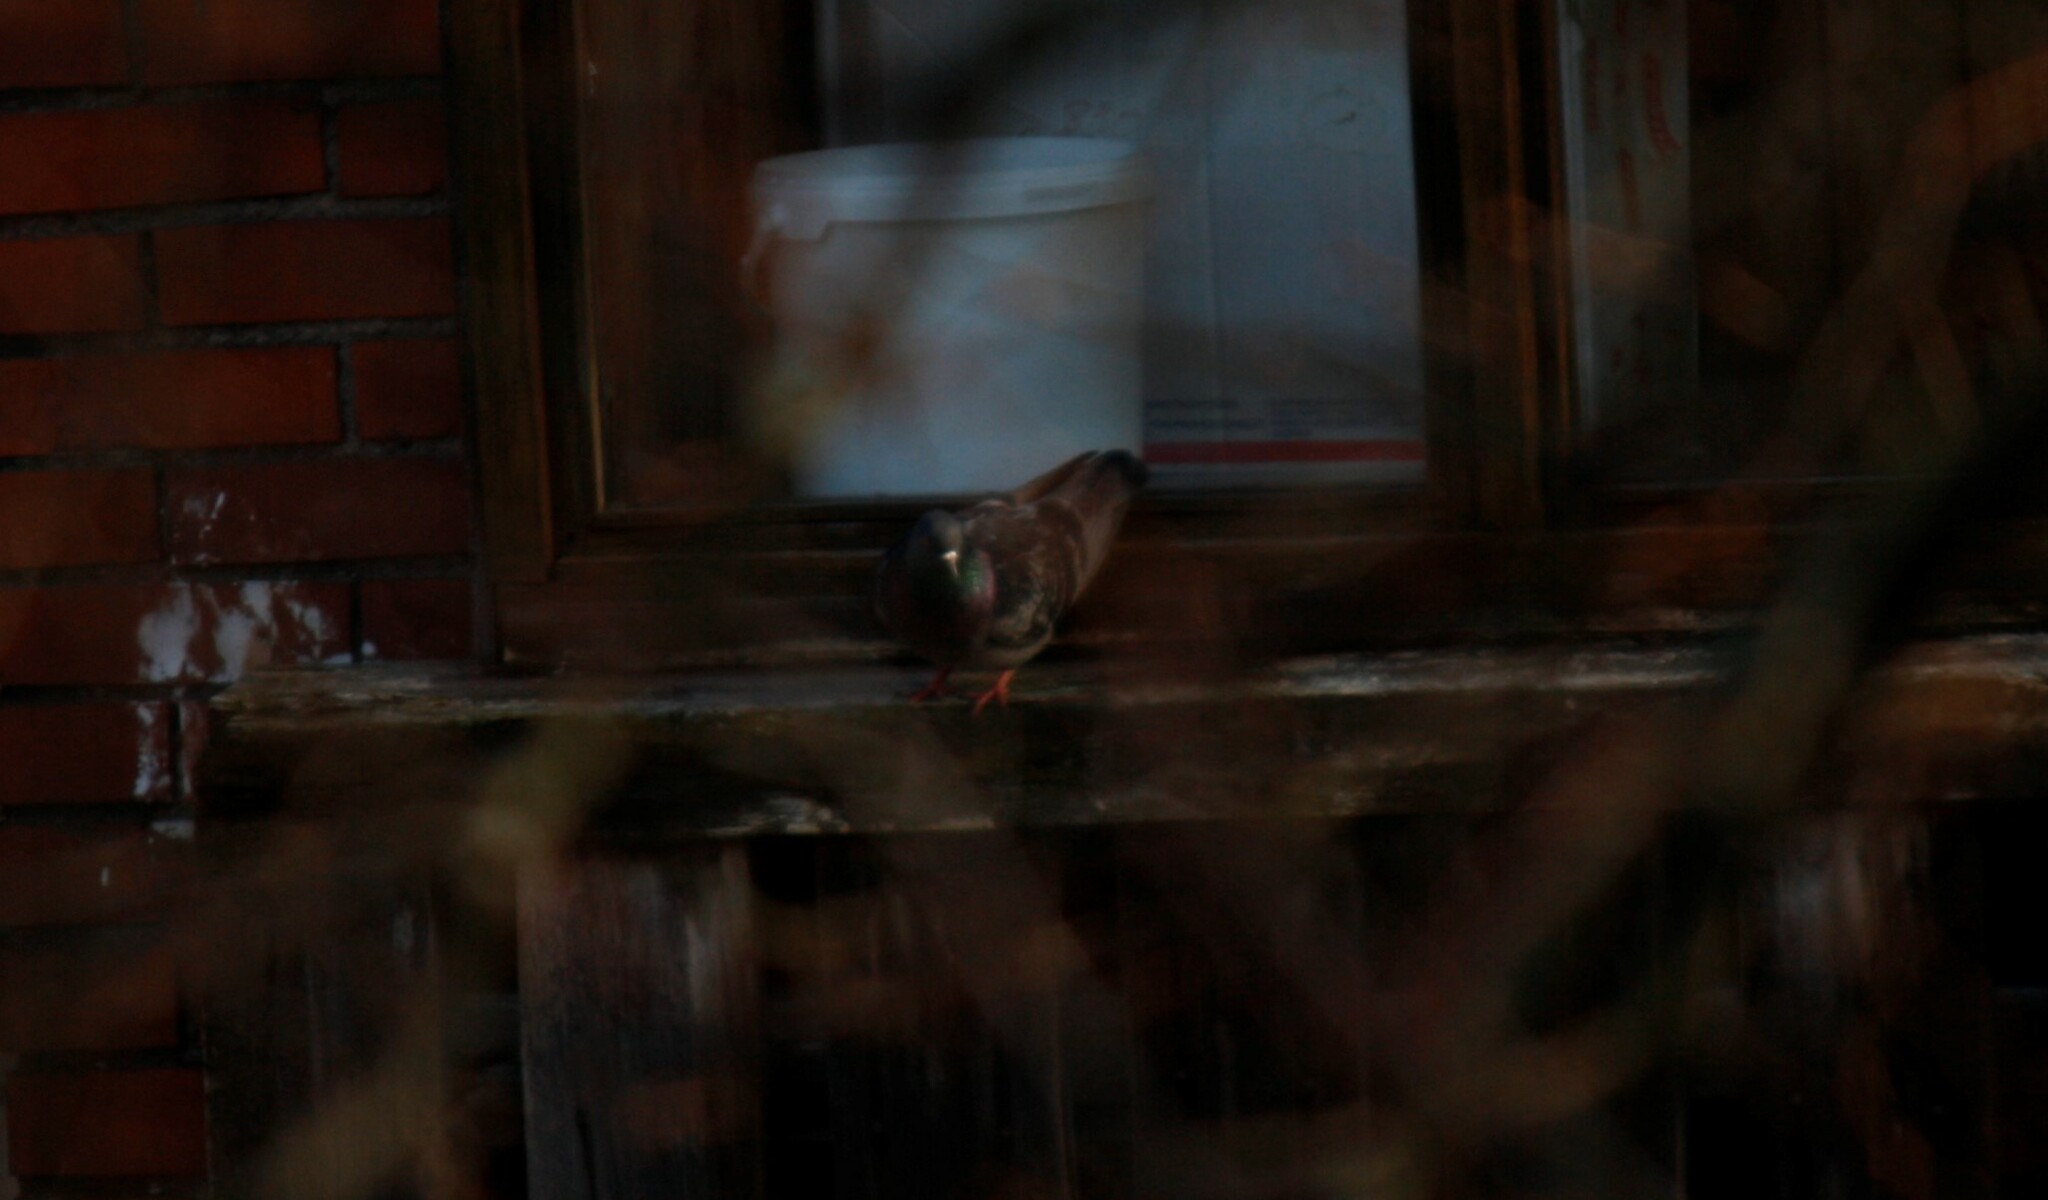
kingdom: Animalia
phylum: Chordata
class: Aves
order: Columbiformes
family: Columbidae
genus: Columba
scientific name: Columba livia
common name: Rock pigeon
